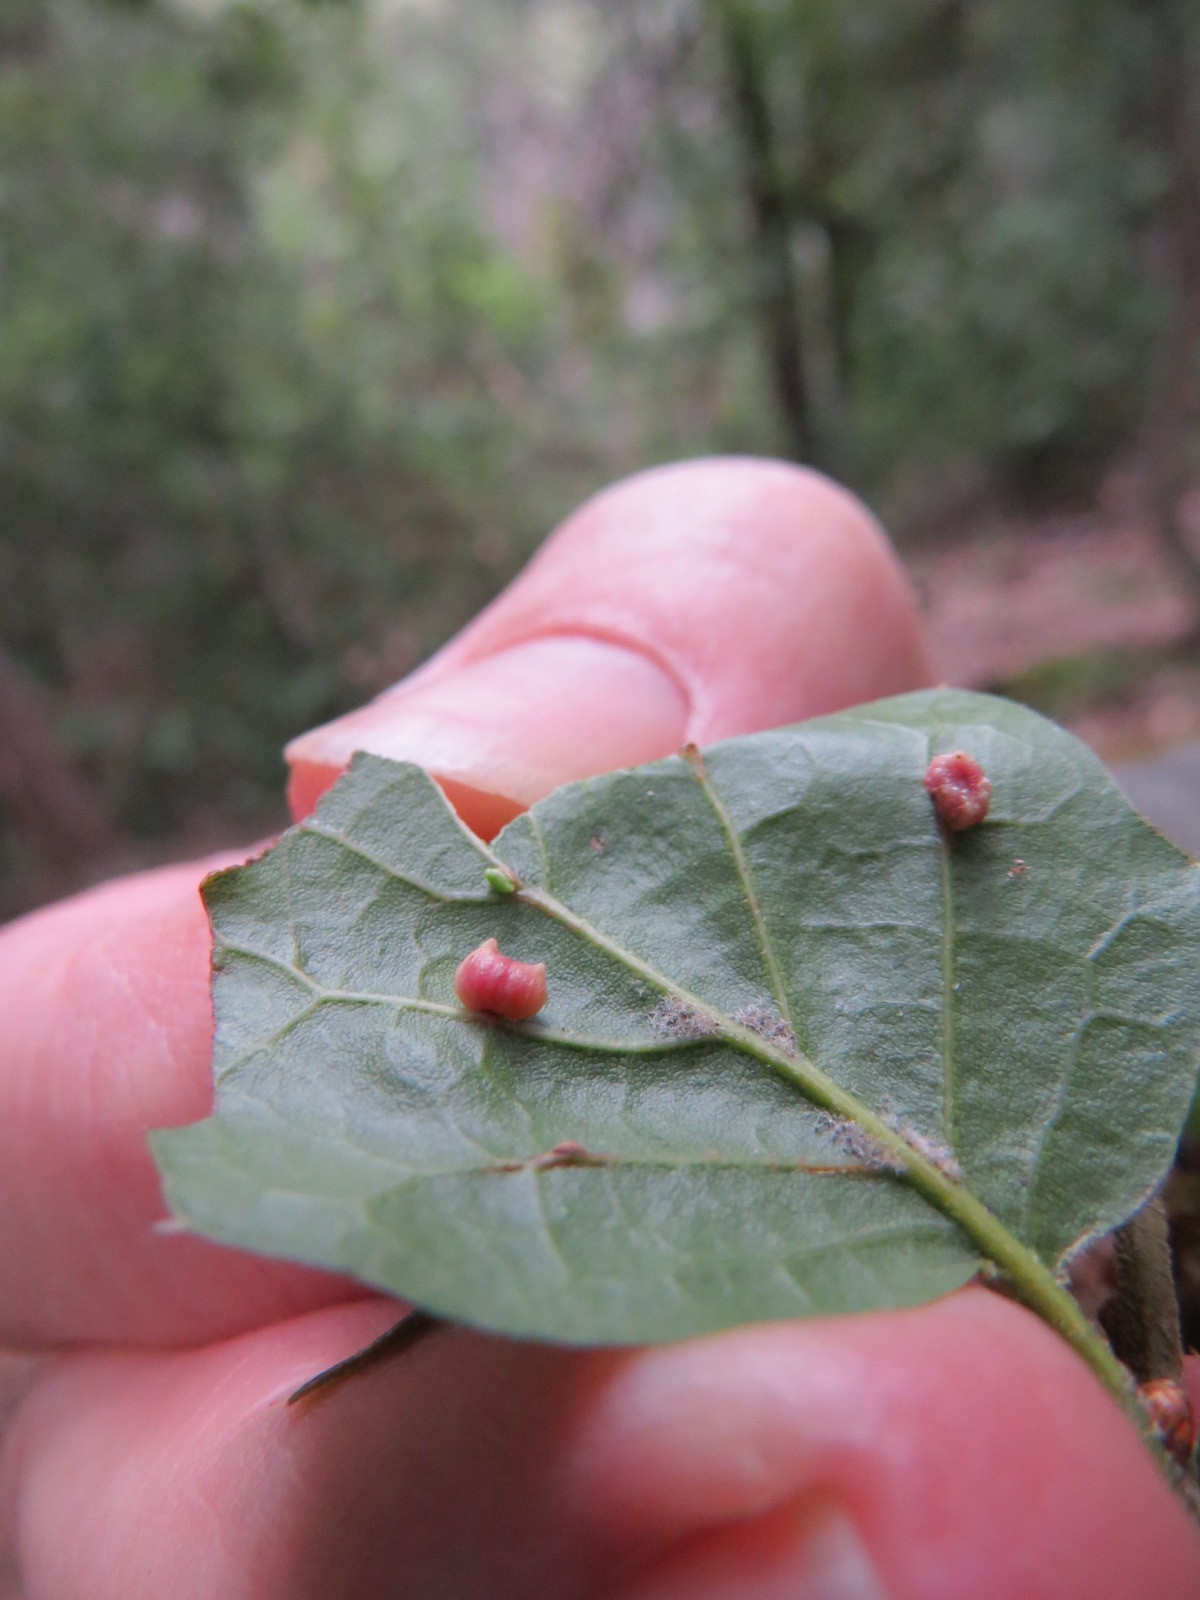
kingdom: Animalia
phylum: Arthropoda
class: Insecta
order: Hymenoptera
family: Cynipidae
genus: Dryocosmus
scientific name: Dryocosmus
